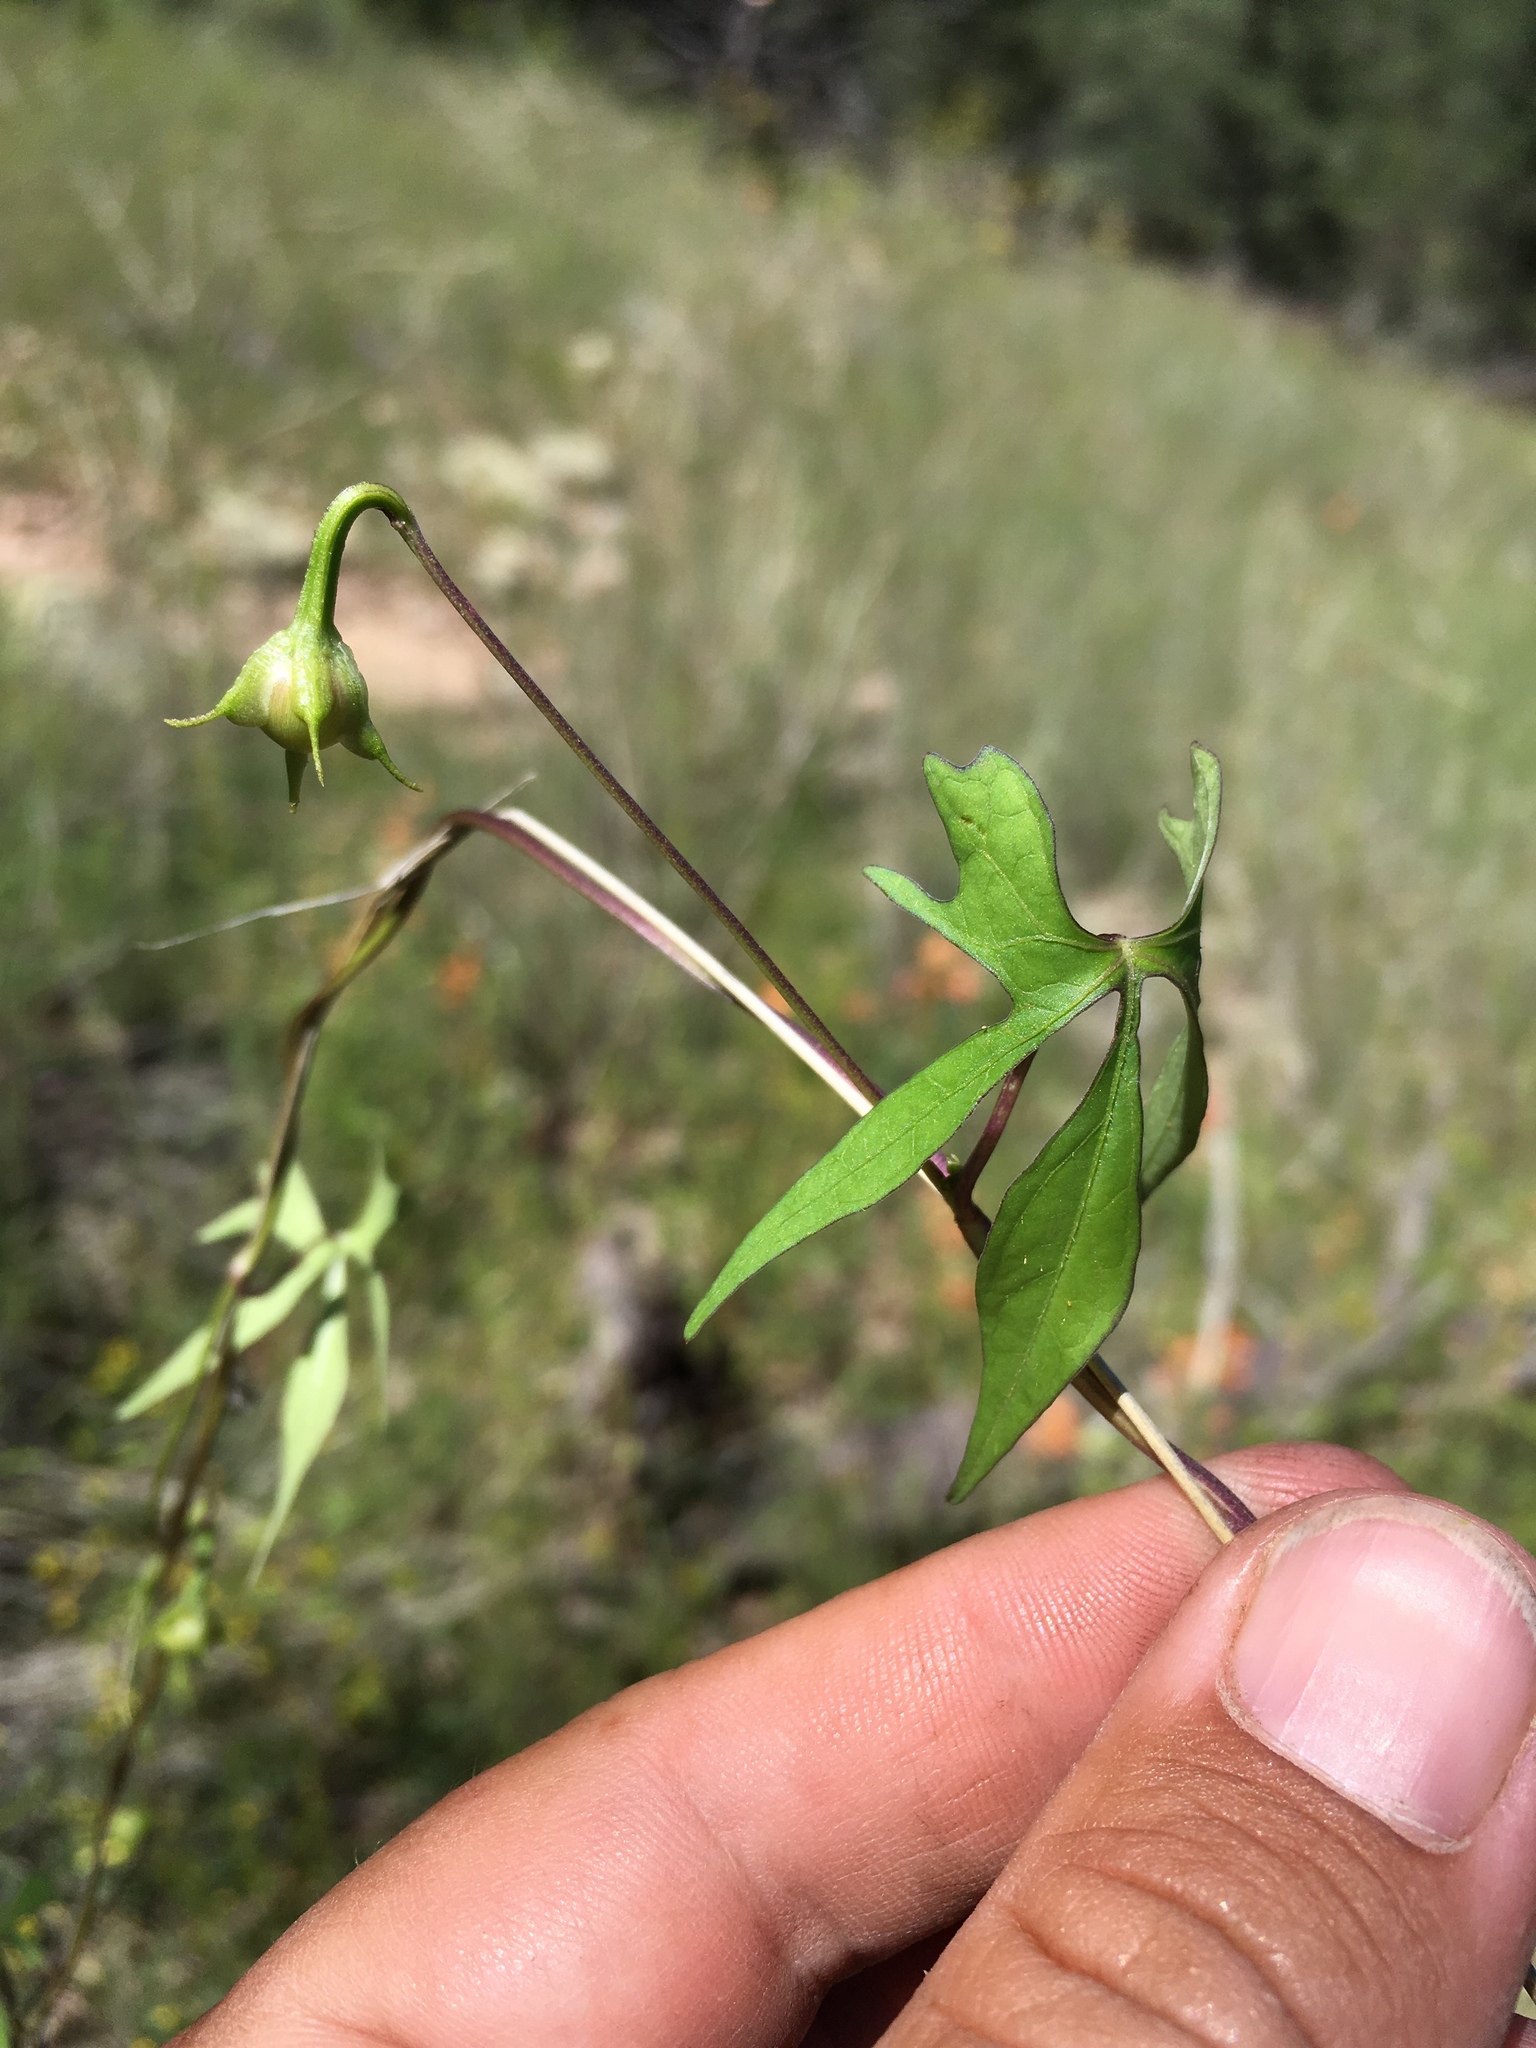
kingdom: Plantae
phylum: Tracheophyta
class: Magnoliopsida
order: Solanales
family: Convolvulaceae
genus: Ipomoea
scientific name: Ipomoea cristulata
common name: Trans-pecos morning-glory
